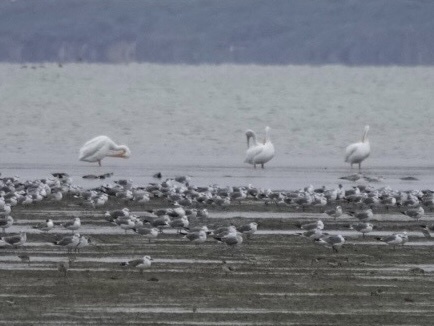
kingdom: Animalia
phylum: Chordata
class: Aves
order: Pelecaniformes
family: Pelecanidae
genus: Pelecanus
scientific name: Pelecanus erythrorhynchos
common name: American white pelican
